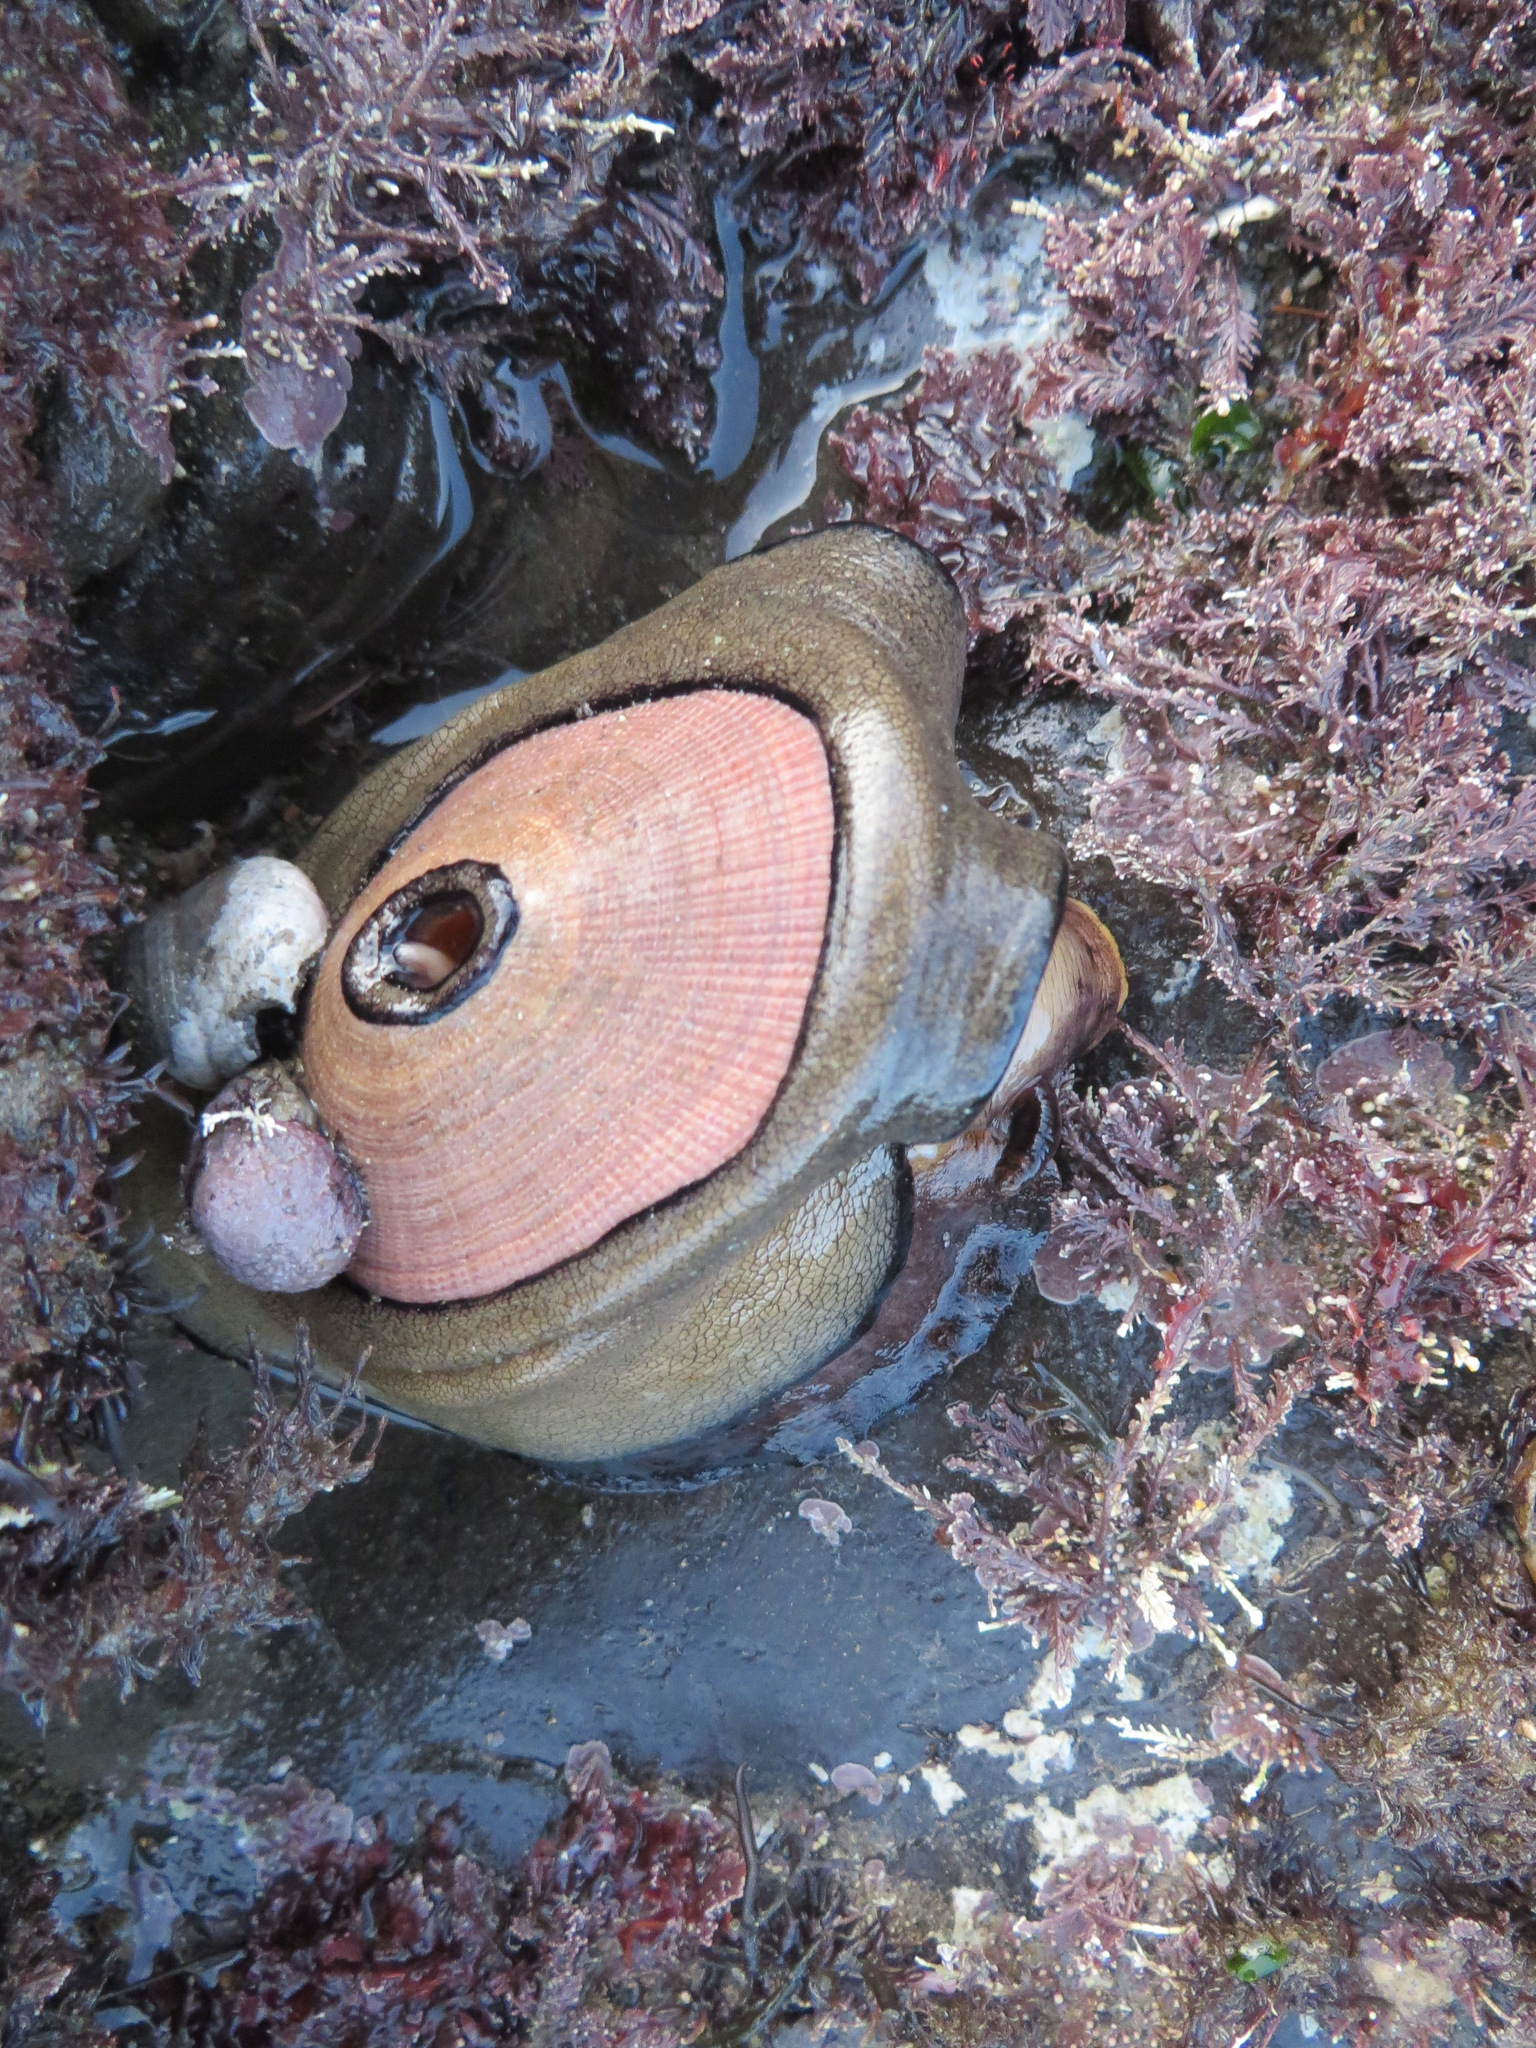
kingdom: Animalia
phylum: Mollusca
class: Gastropoda
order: Lepetellida
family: Fissurellidae
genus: Megathura
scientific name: Megathura crenulata
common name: Giant keyhole limpet
